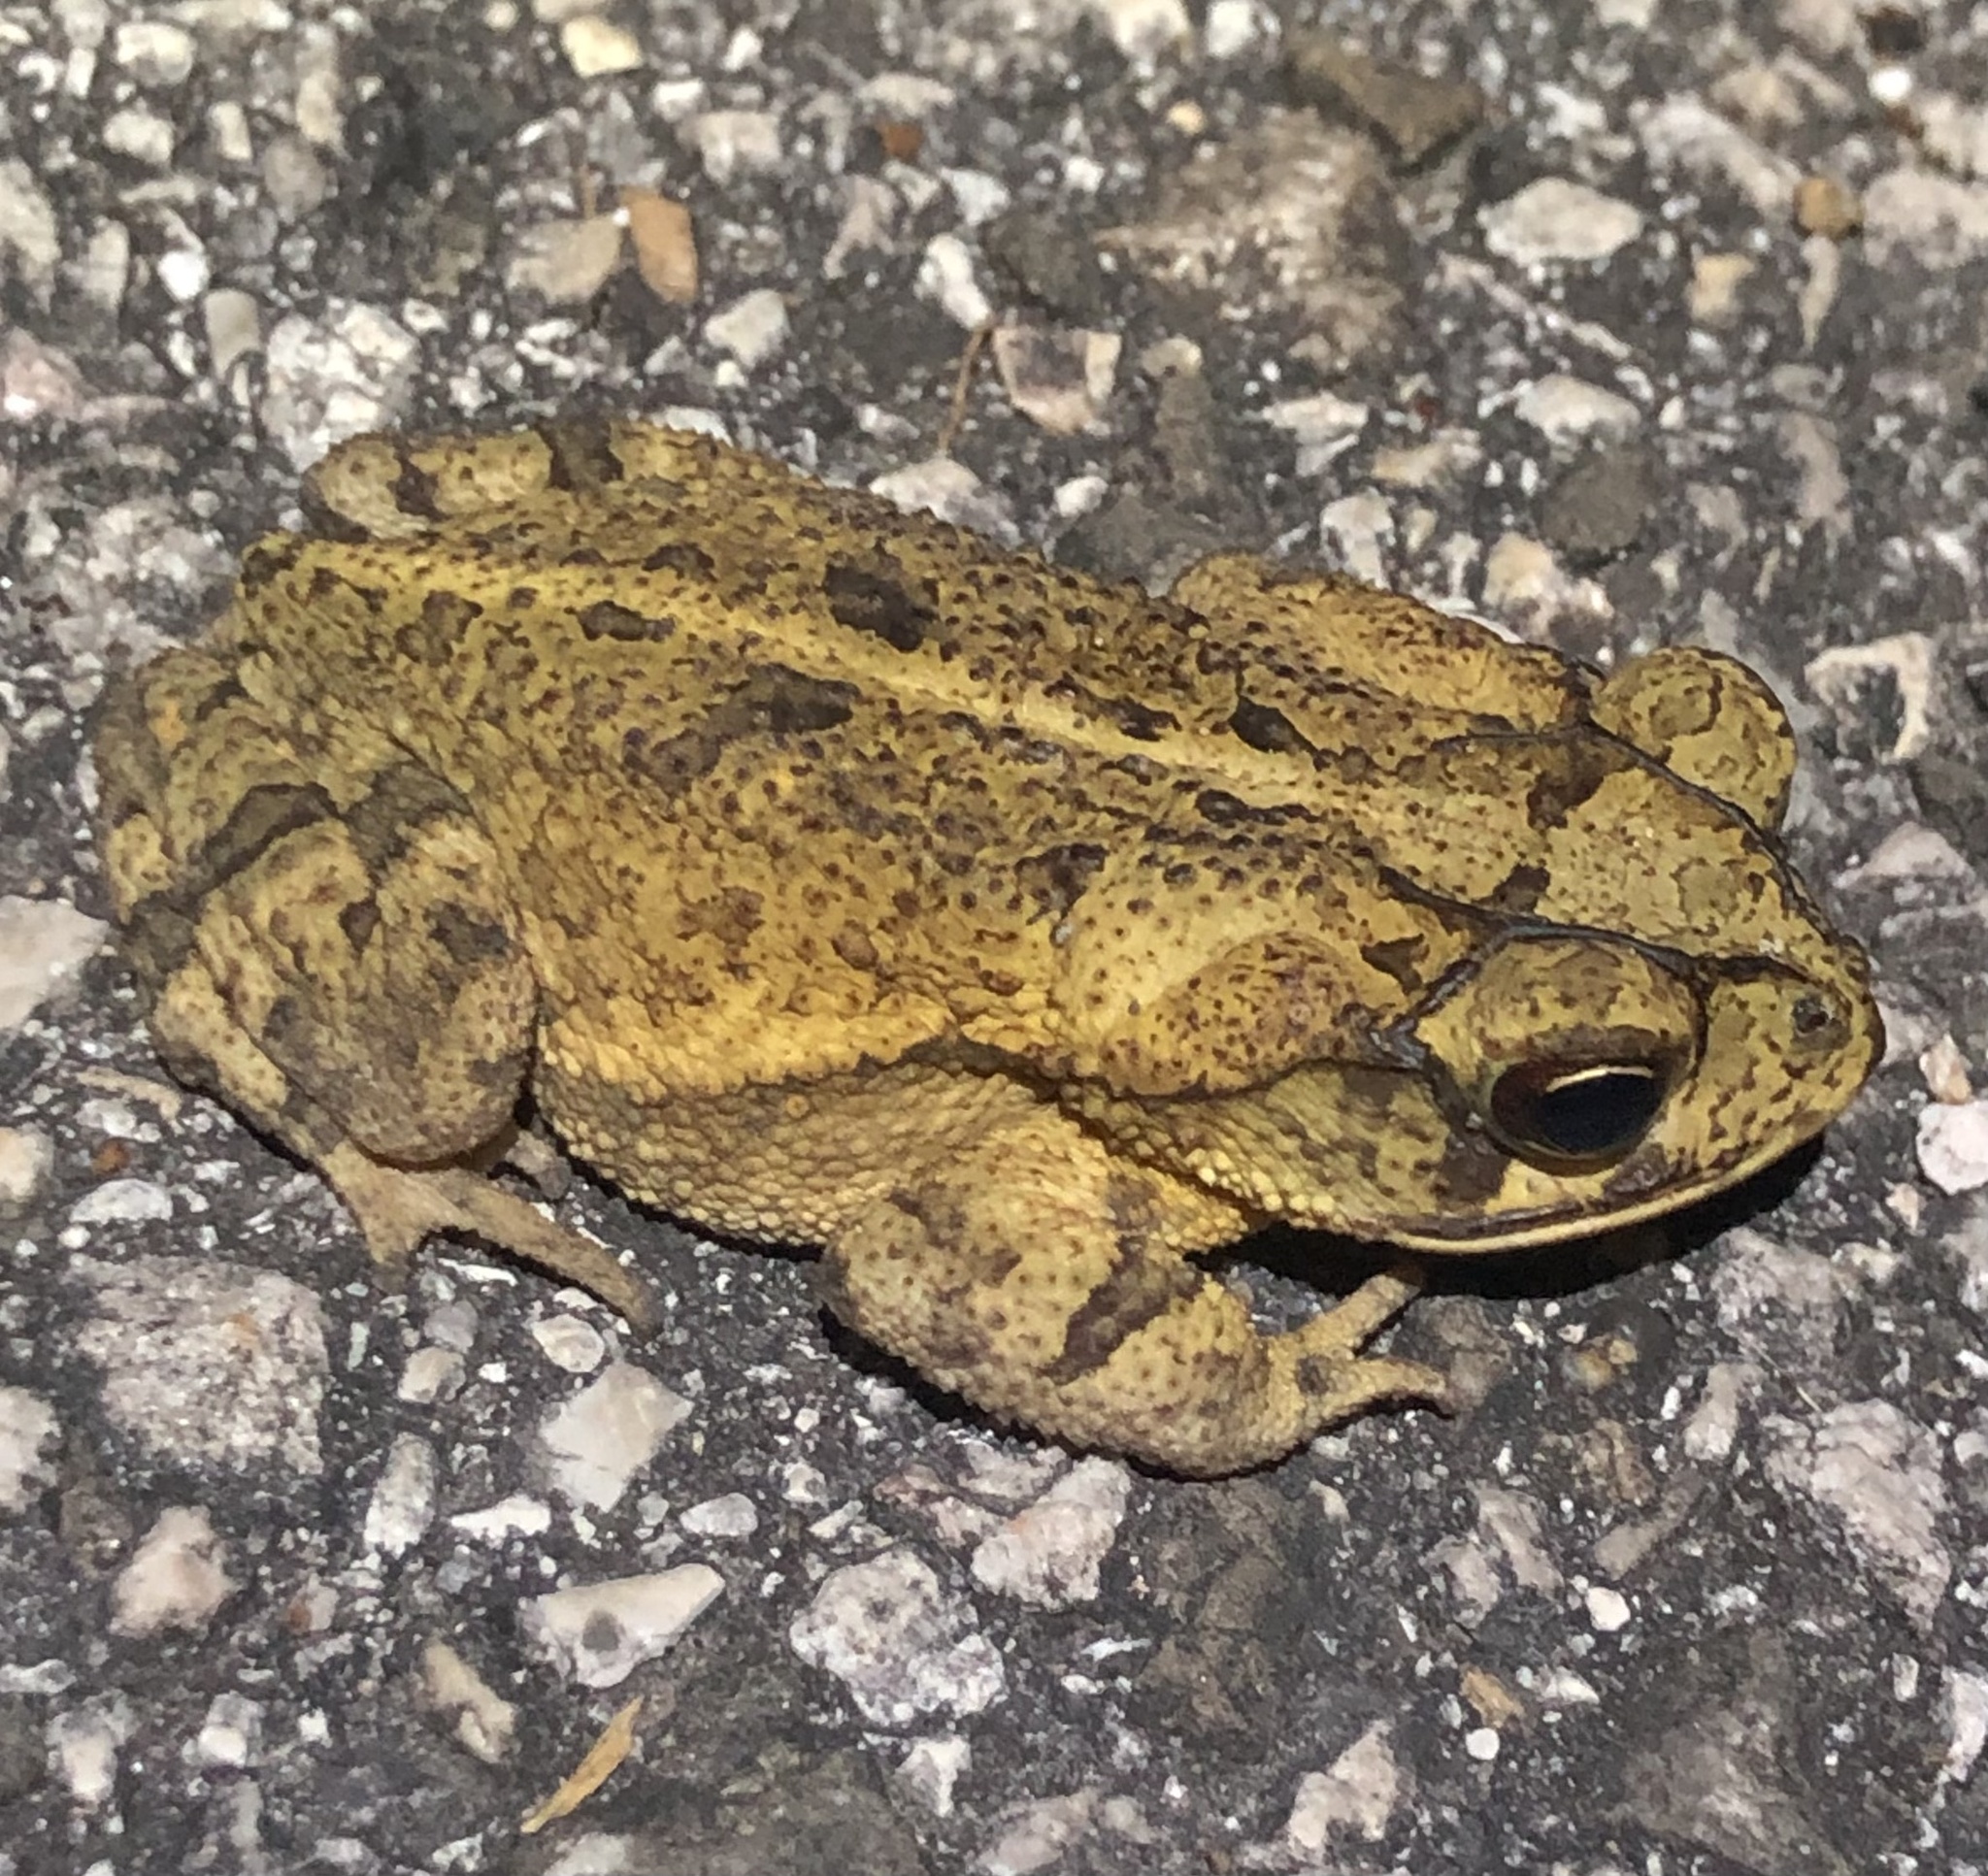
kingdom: Animalia
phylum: Chordata
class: Amphibia
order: Anura
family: Bufonidae
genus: Incilius
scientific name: Incilius nebulifer
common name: Gulf coast toad
